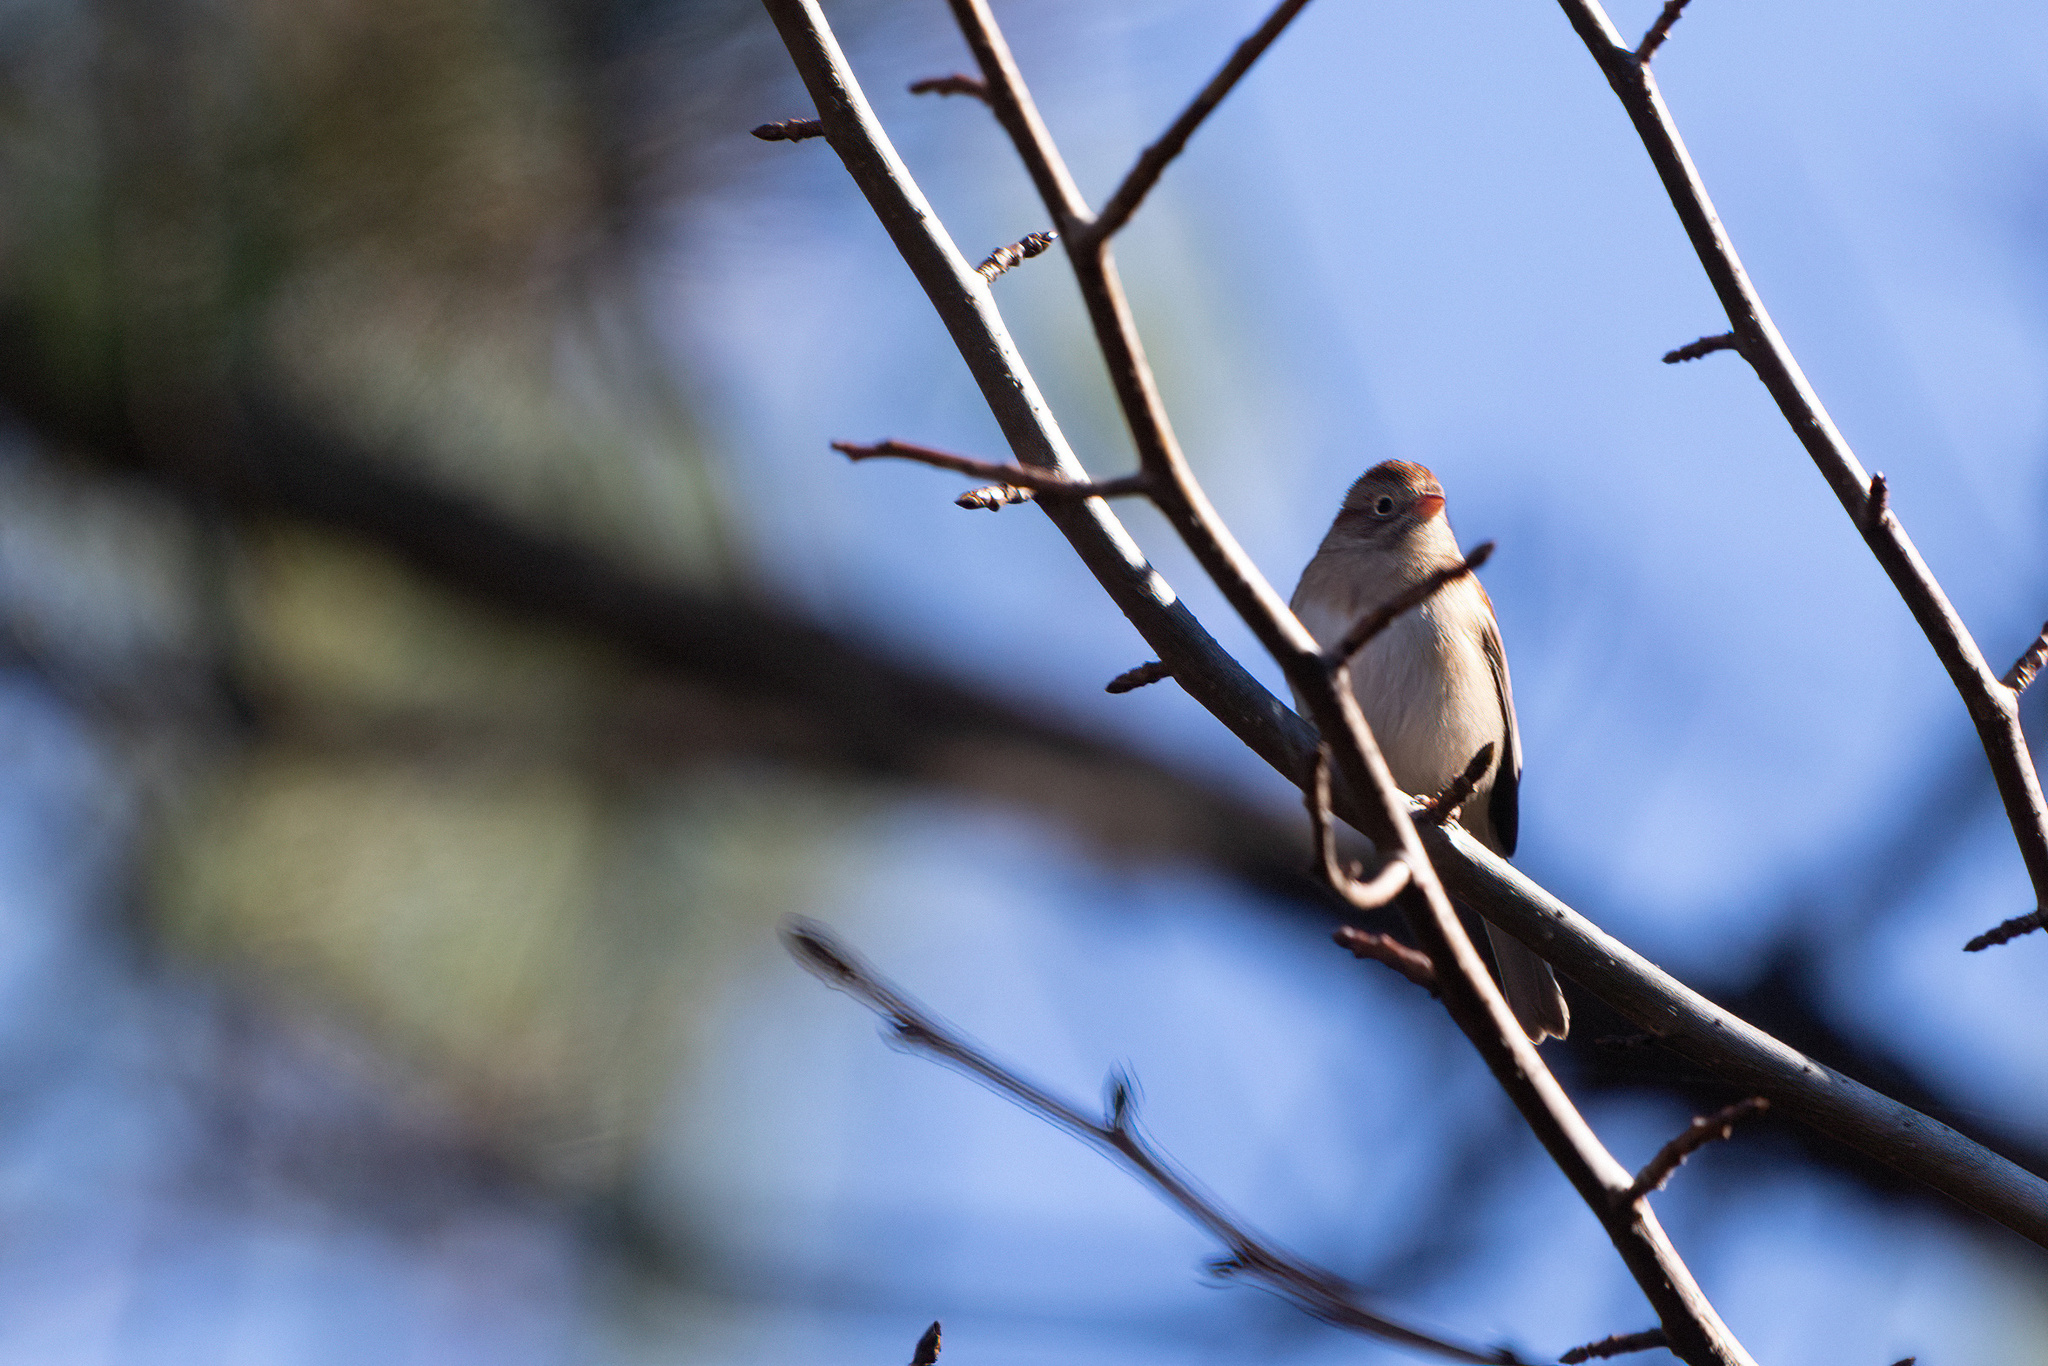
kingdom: Animalia
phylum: Chordata
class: Aves
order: Passeriformes
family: Passerellidae
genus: Spizella
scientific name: Spizella pusilla
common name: Field sparrow
